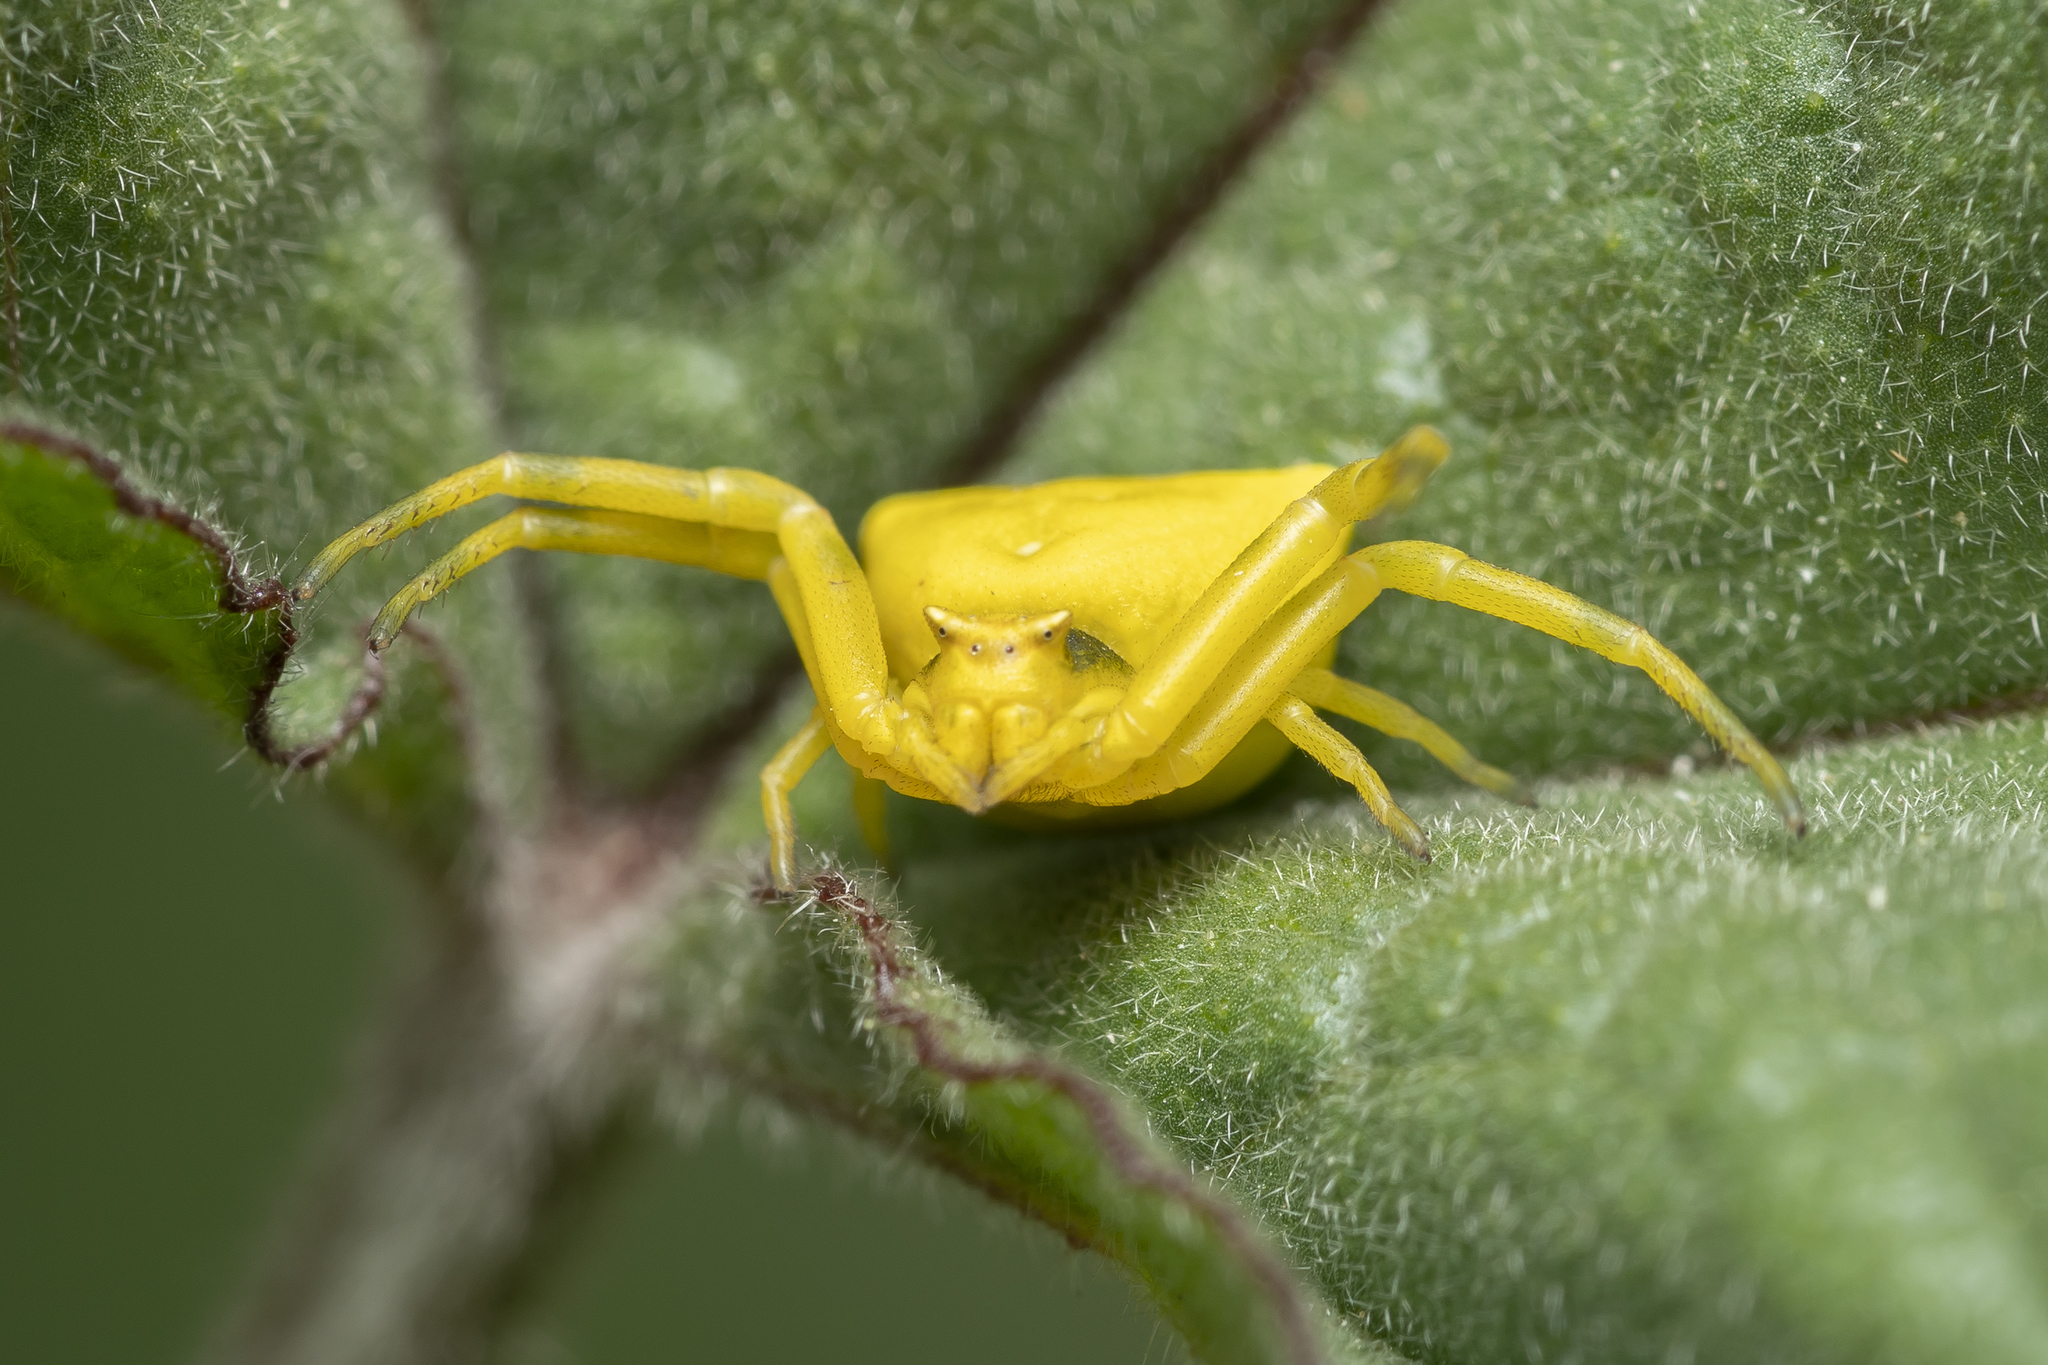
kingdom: Animalia
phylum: Arthropoda
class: Arachnida
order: Araneae
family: Thomisidae
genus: Thomisus
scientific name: Thomisus onustus
